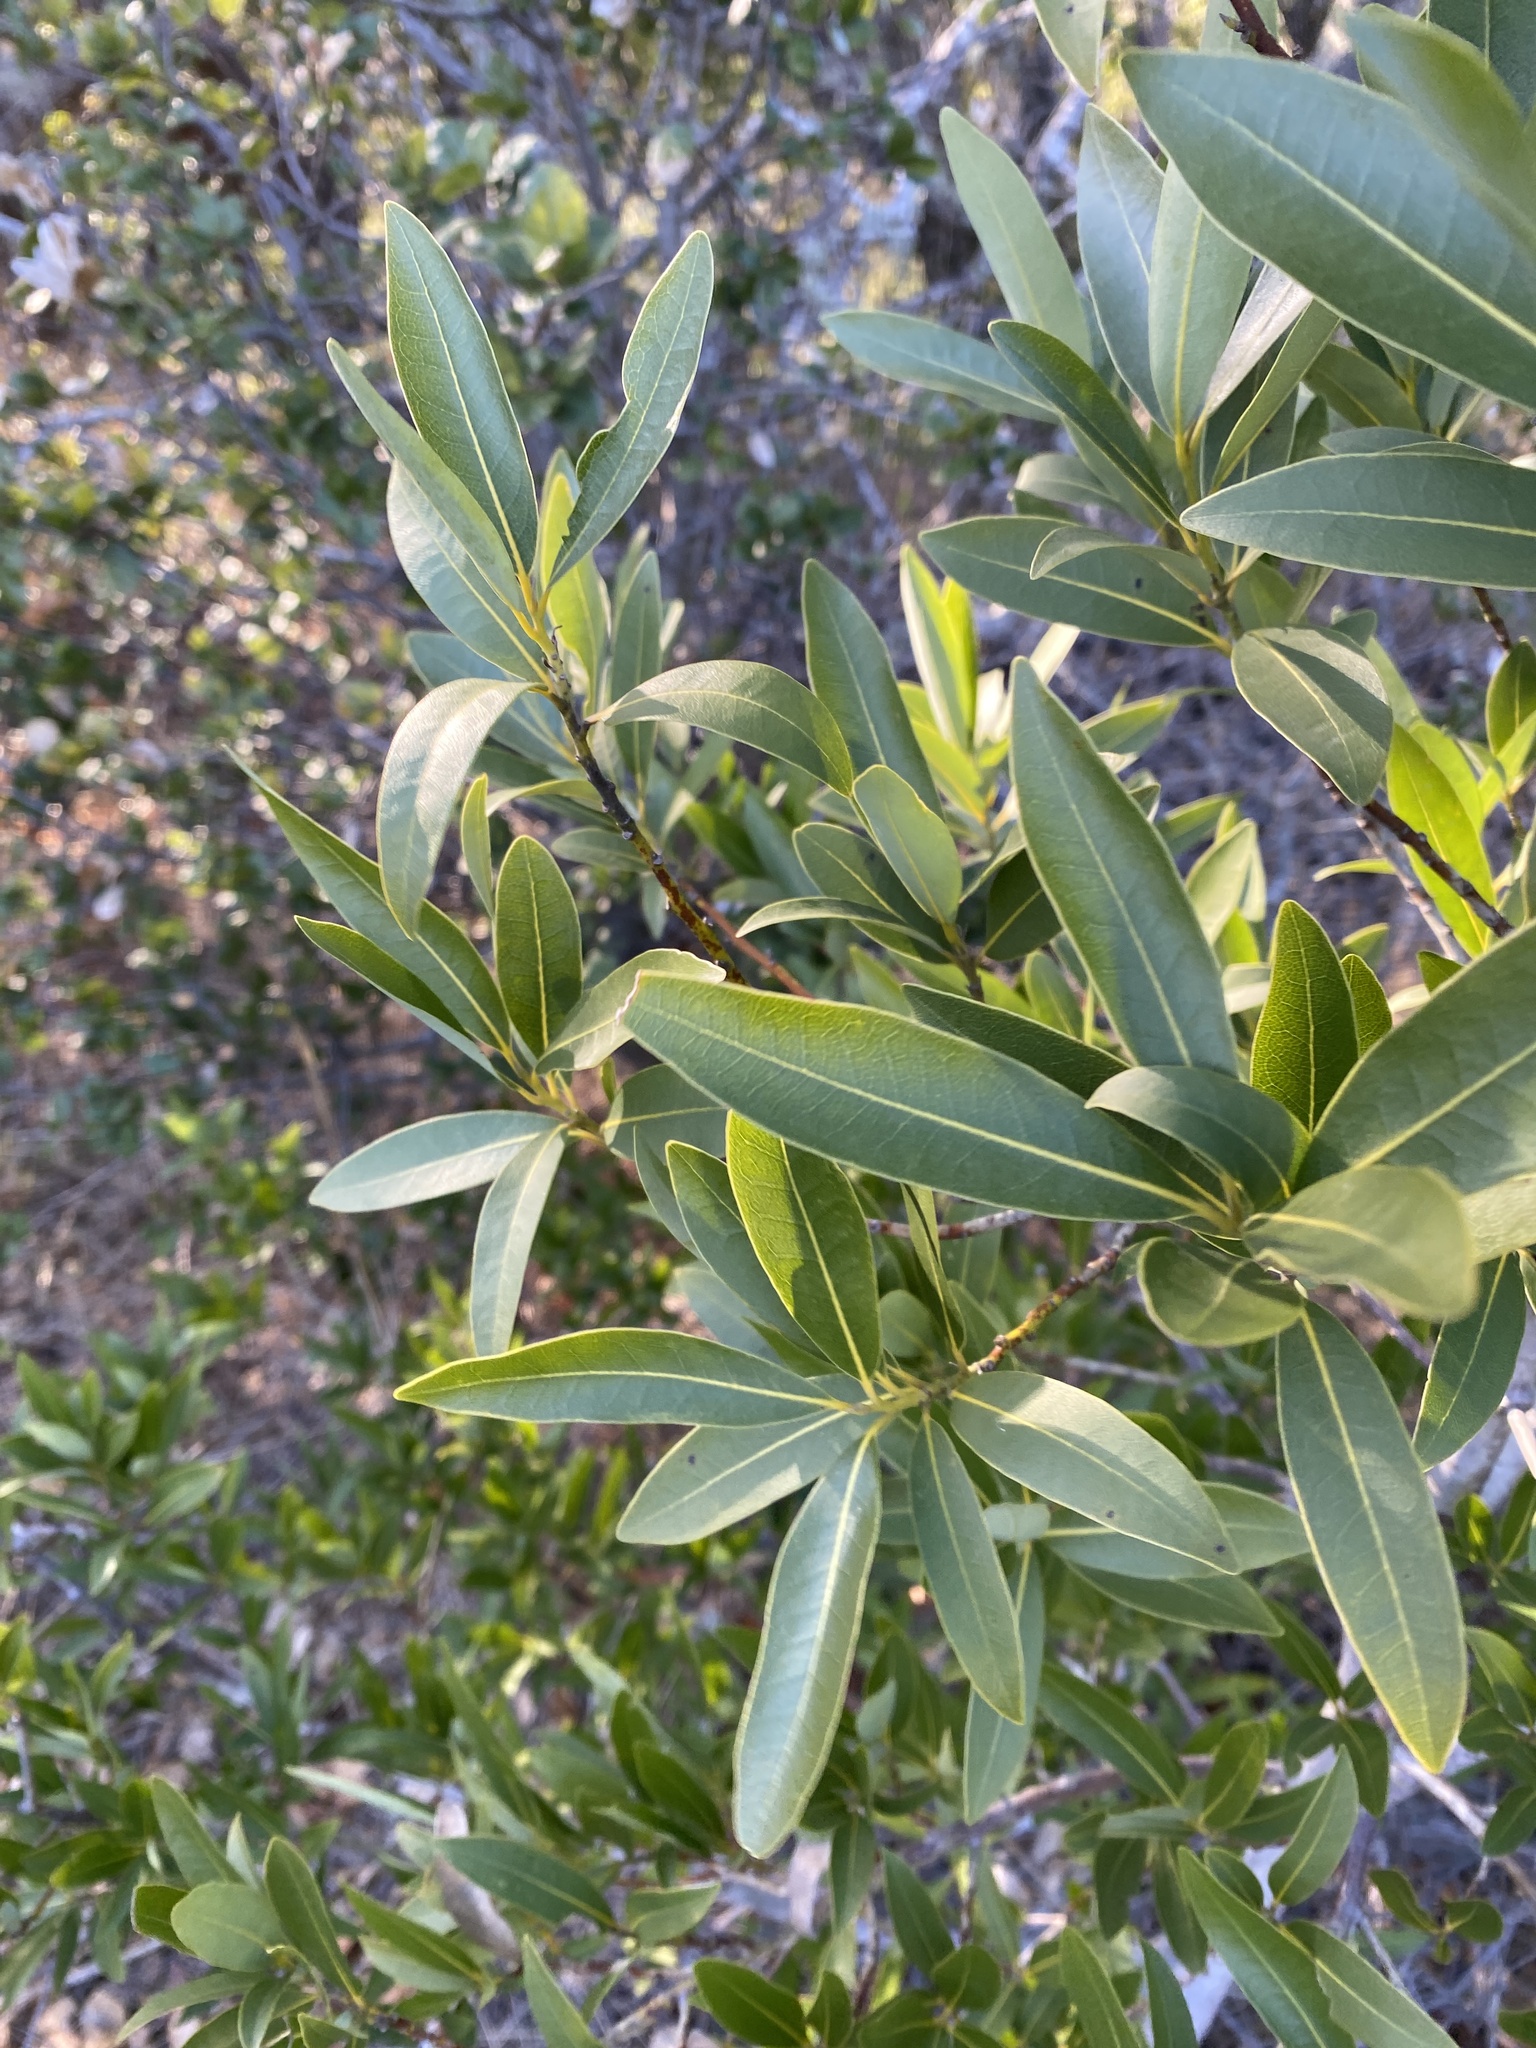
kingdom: Plantae
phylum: Tracheophyta
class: Magnoliopsida
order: Laurales
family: Lauraceae
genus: Umbellularia
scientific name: Umbellularia californica
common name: California bay
